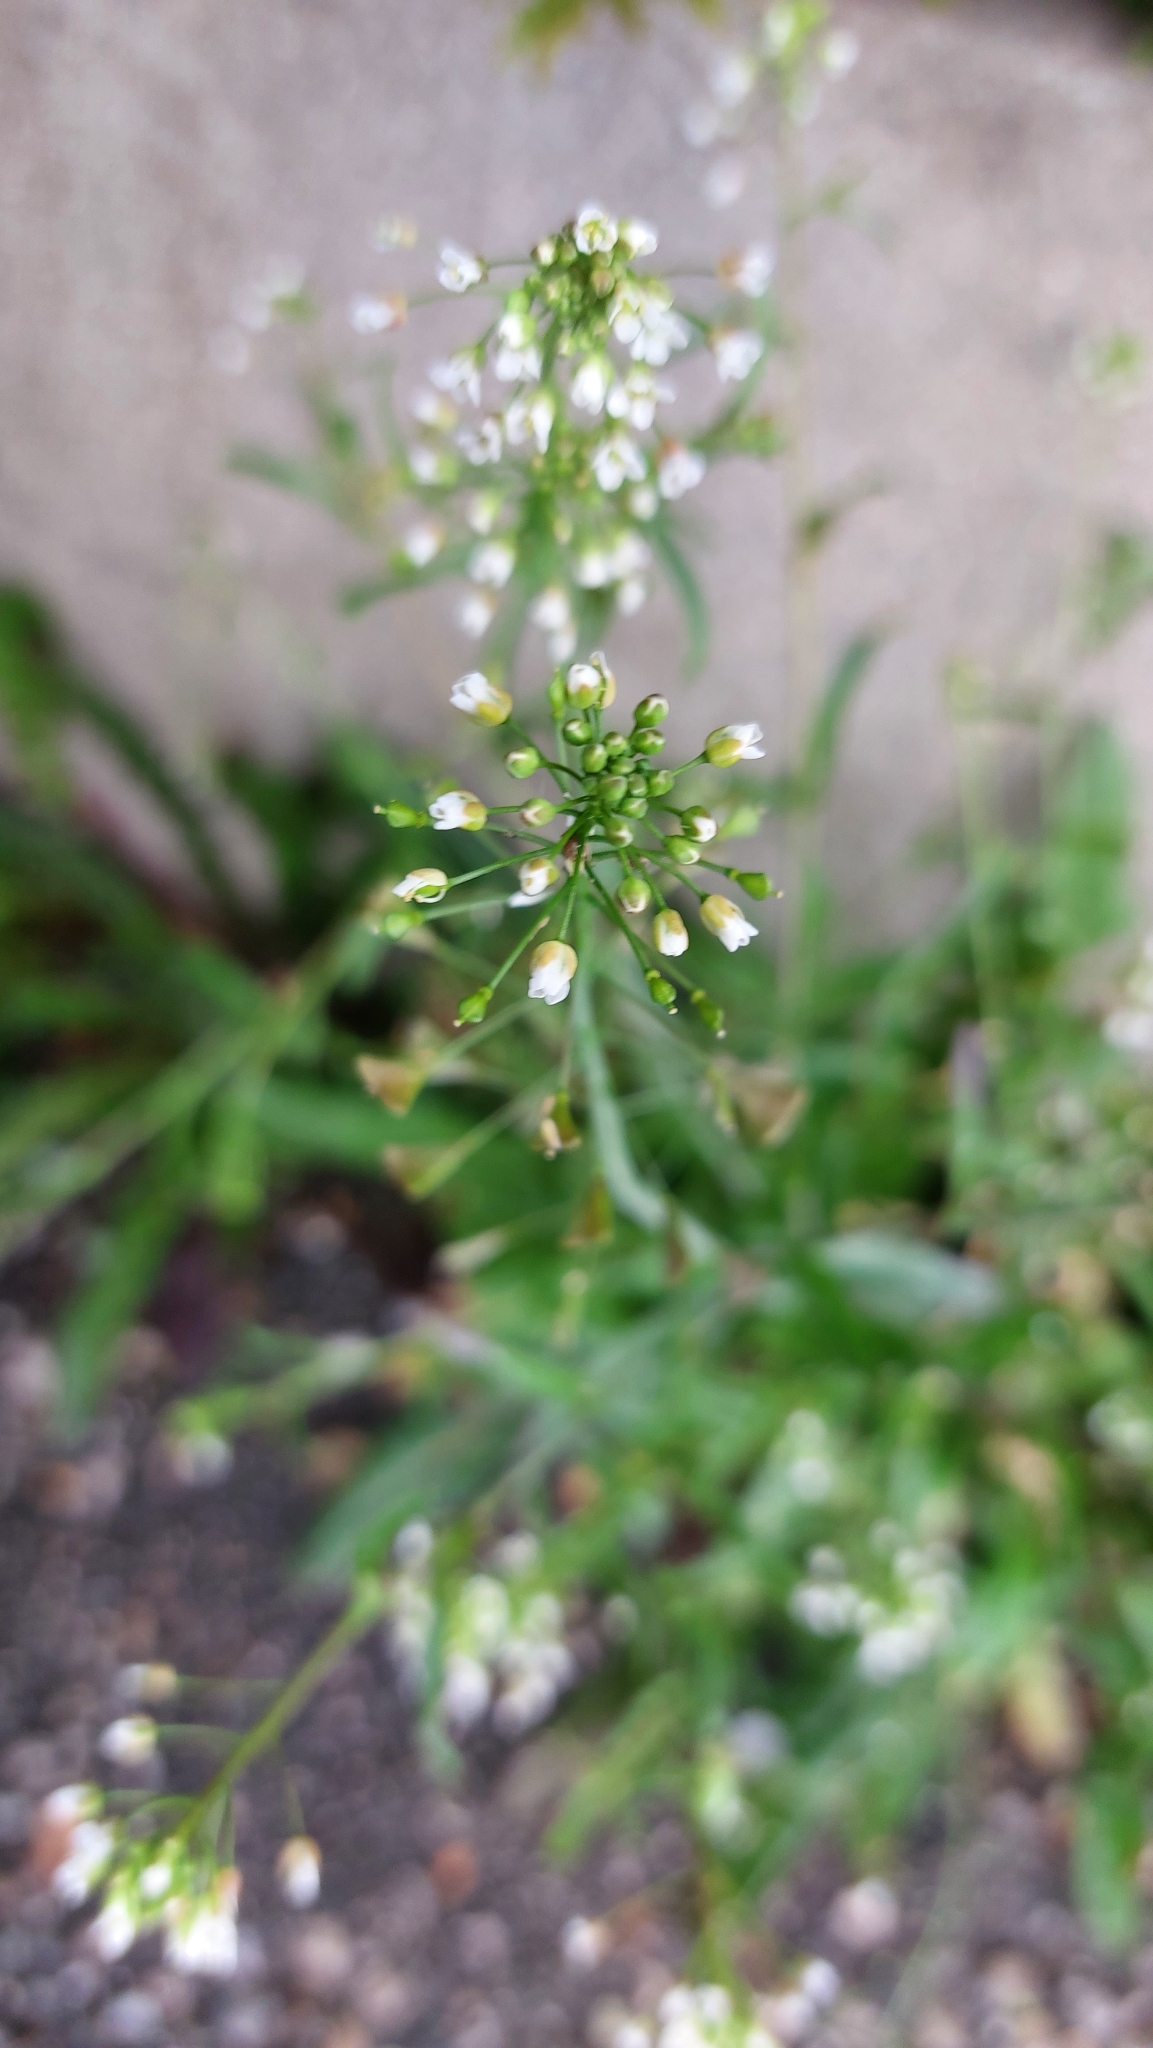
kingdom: Plantae
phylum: Tracheophyta
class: Magnoliopsida
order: Brassicales
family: Brassicaceae
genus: Capsella
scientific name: Capsella bursa-pastoris
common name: Shepherd's purse
